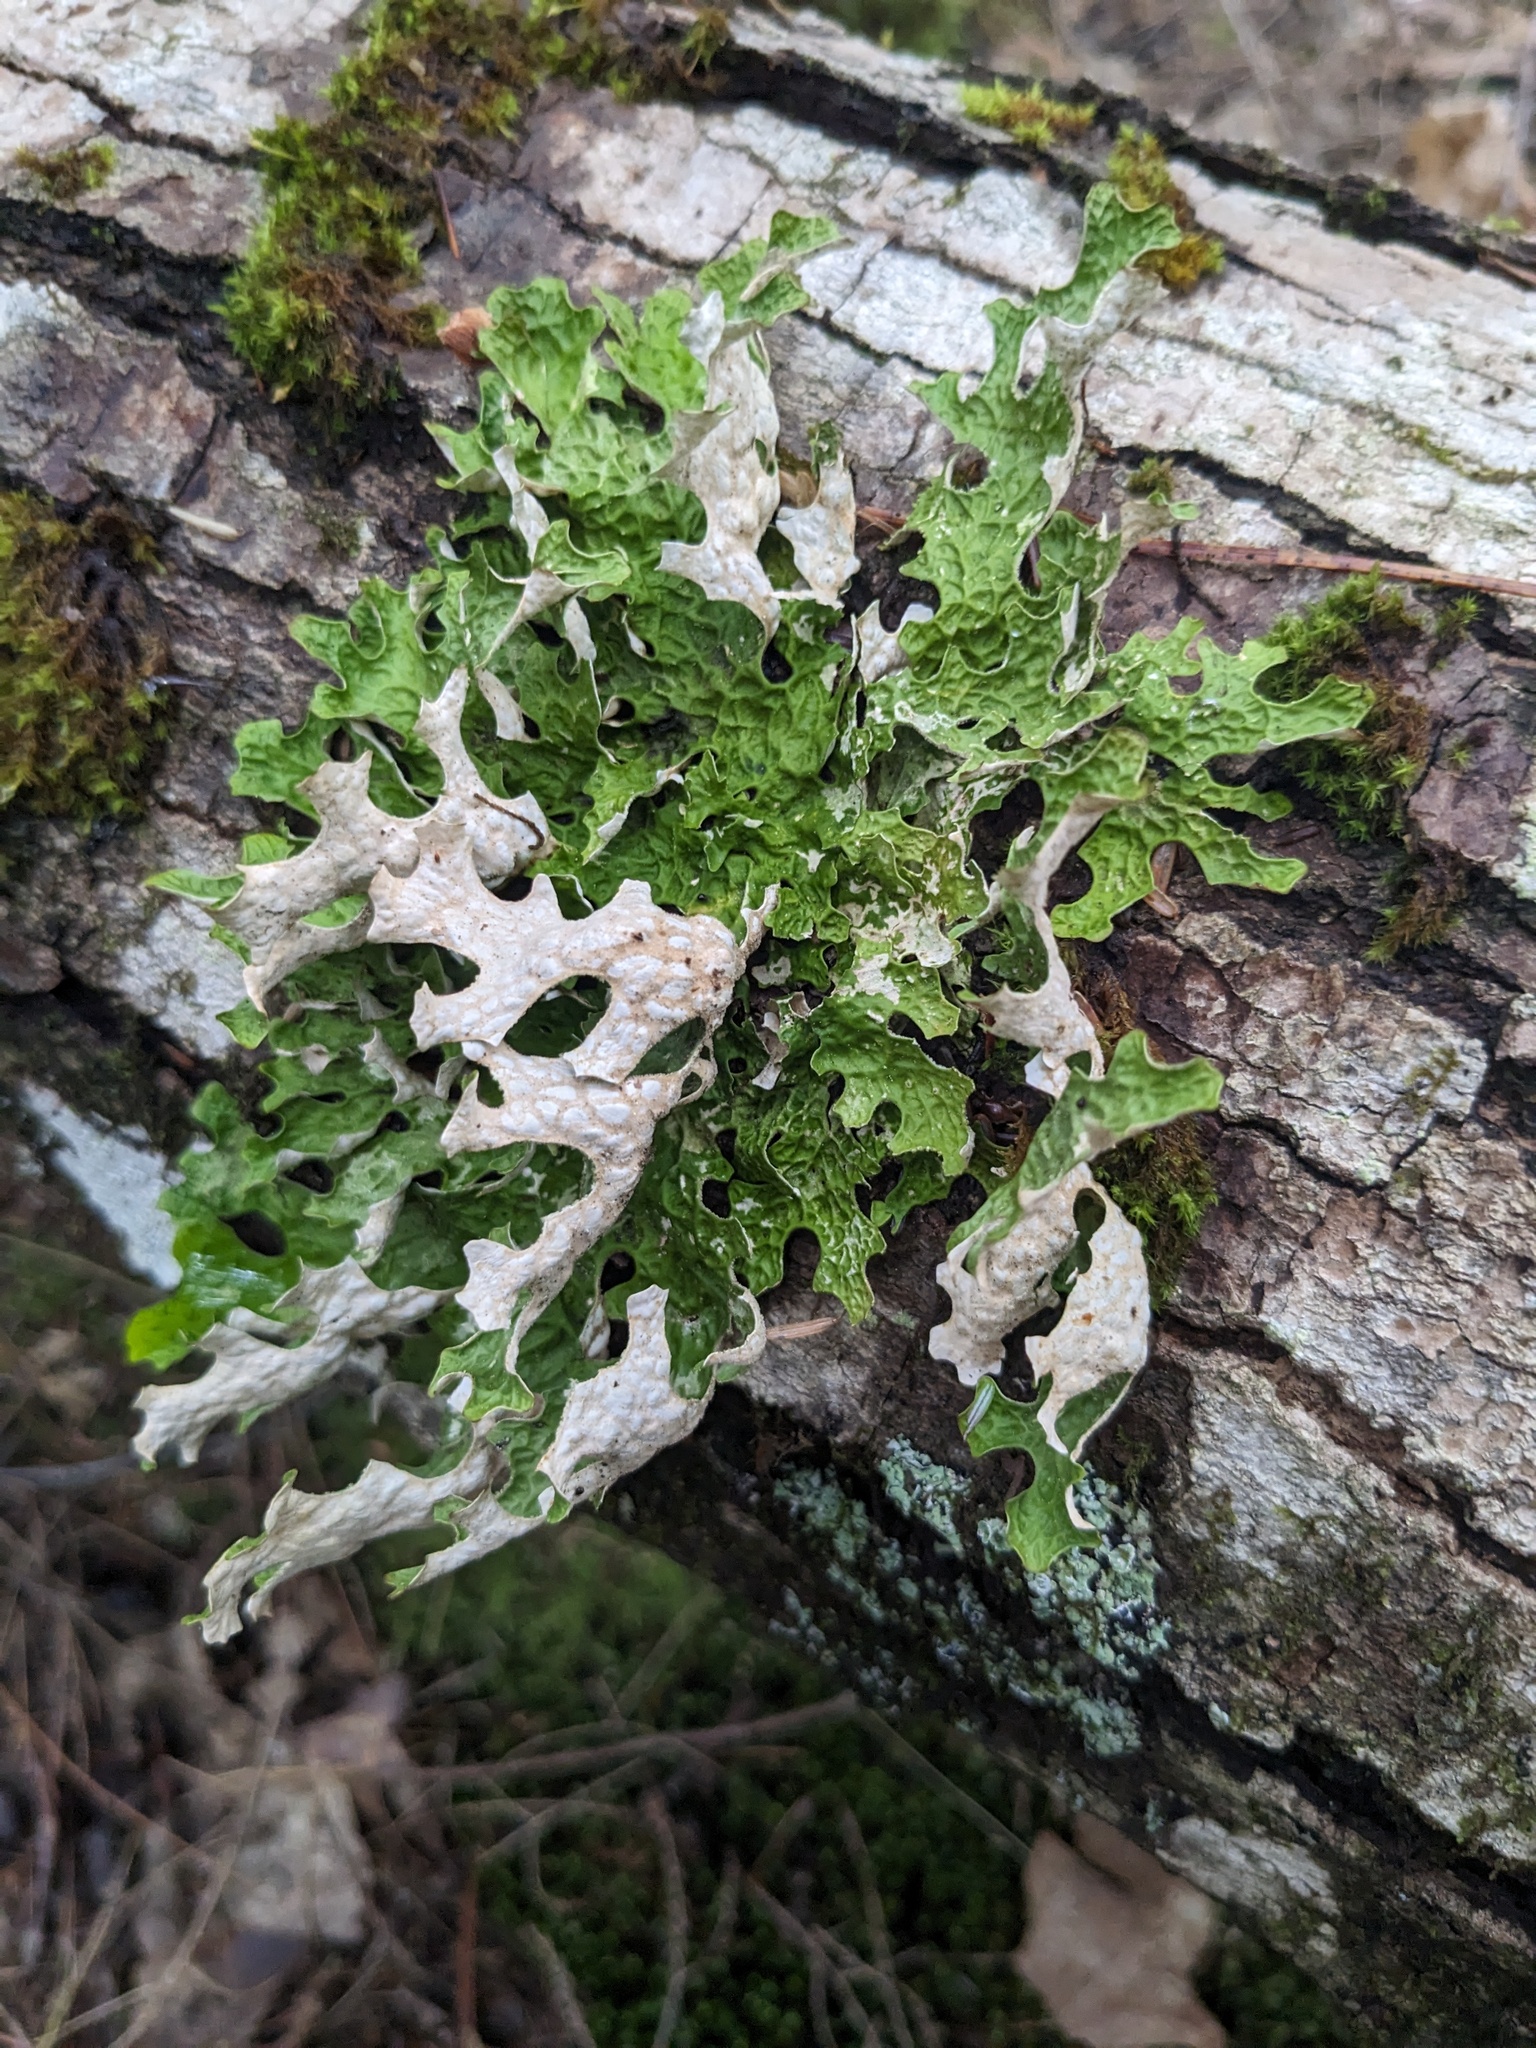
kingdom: Fungi
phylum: Ascomycota
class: Lecanoromycetes
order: Peltigerales
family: Lobariaceae
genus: Lobaria
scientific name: Lobaria pulmonaria
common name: Lungwort
